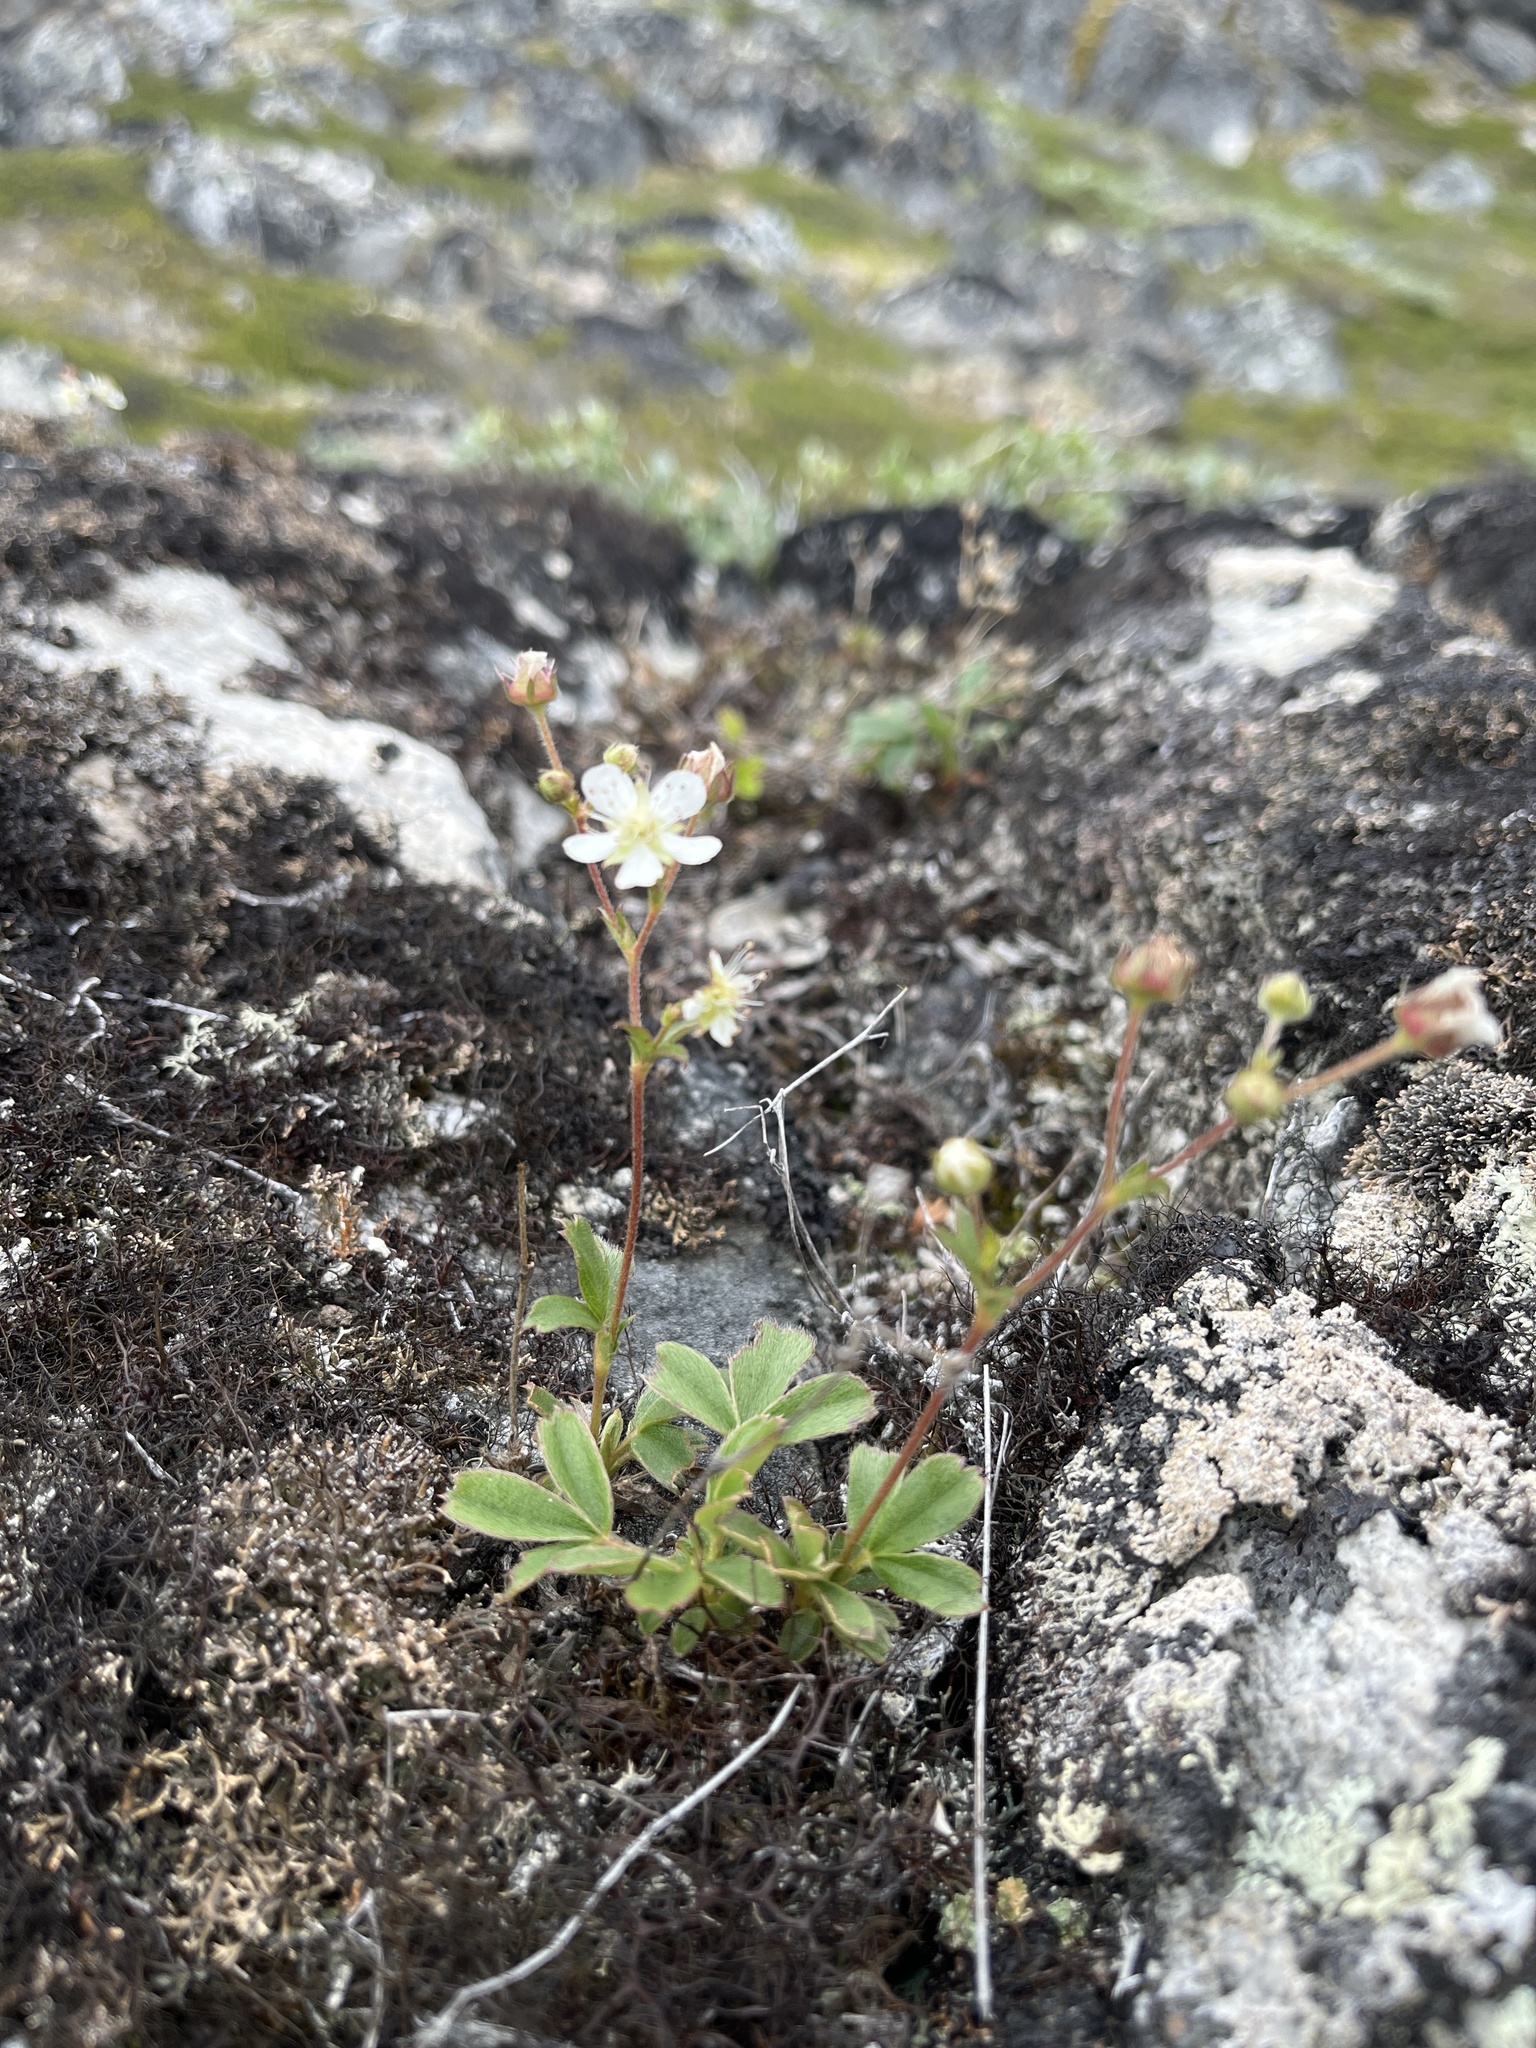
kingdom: Plantae
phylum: Tracheophyta
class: Magnoliopsida
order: Rosales
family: Rosaceae
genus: Sibbaldia
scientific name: Sibbaldia tridentata
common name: Three-toothed cinquefoil
